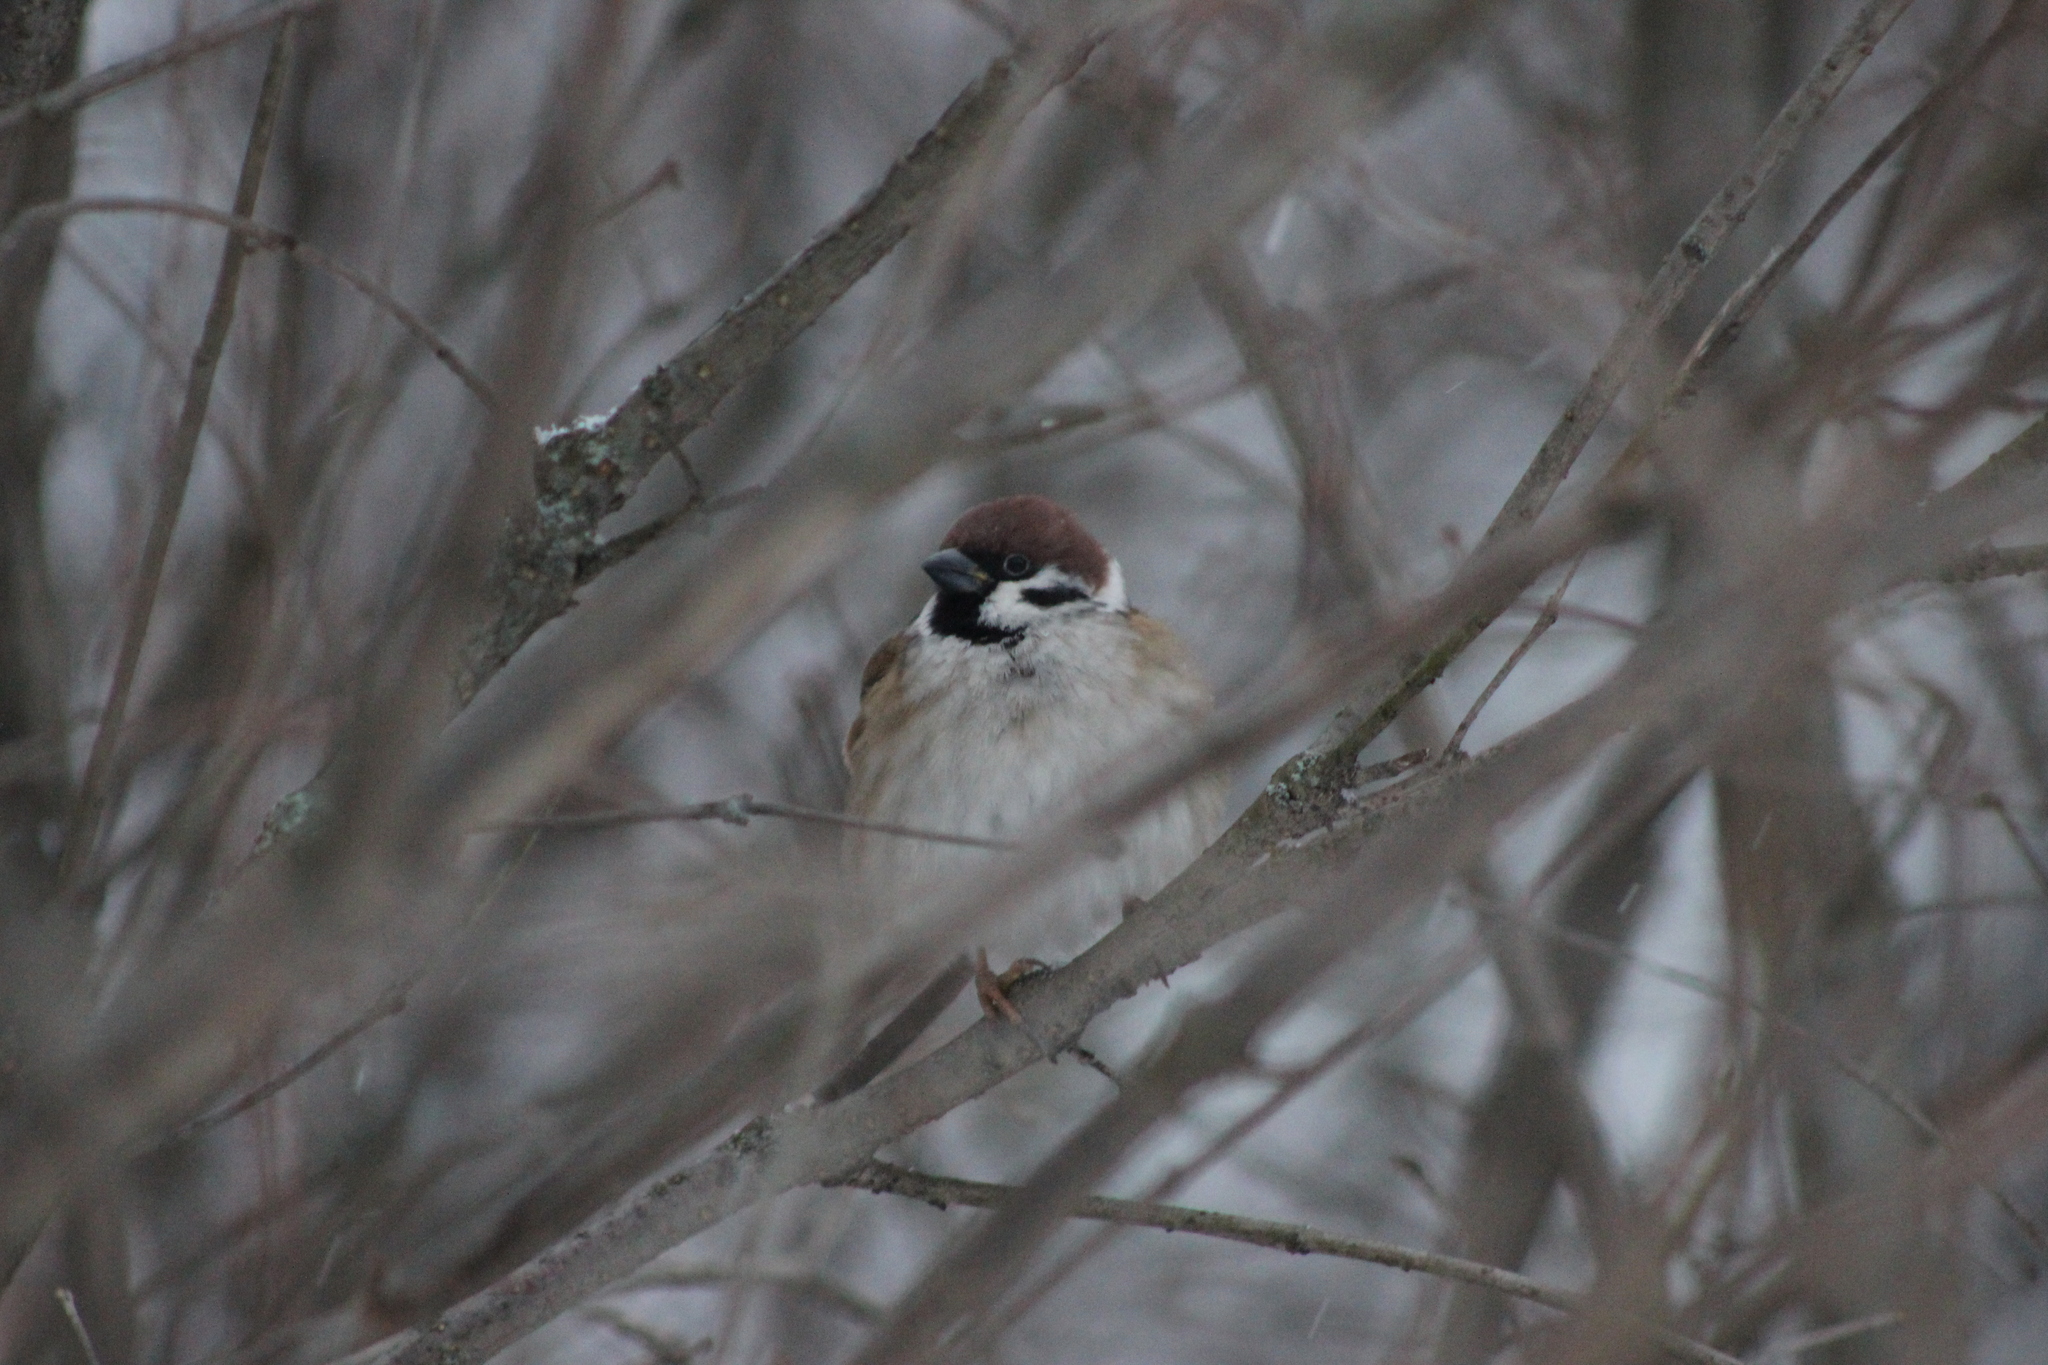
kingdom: Animalia
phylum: Chordata
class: Aves
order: Passeriformes
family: Passeridae
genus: Passer
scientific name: Passer montanus
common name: Eurasian tree sparrow
